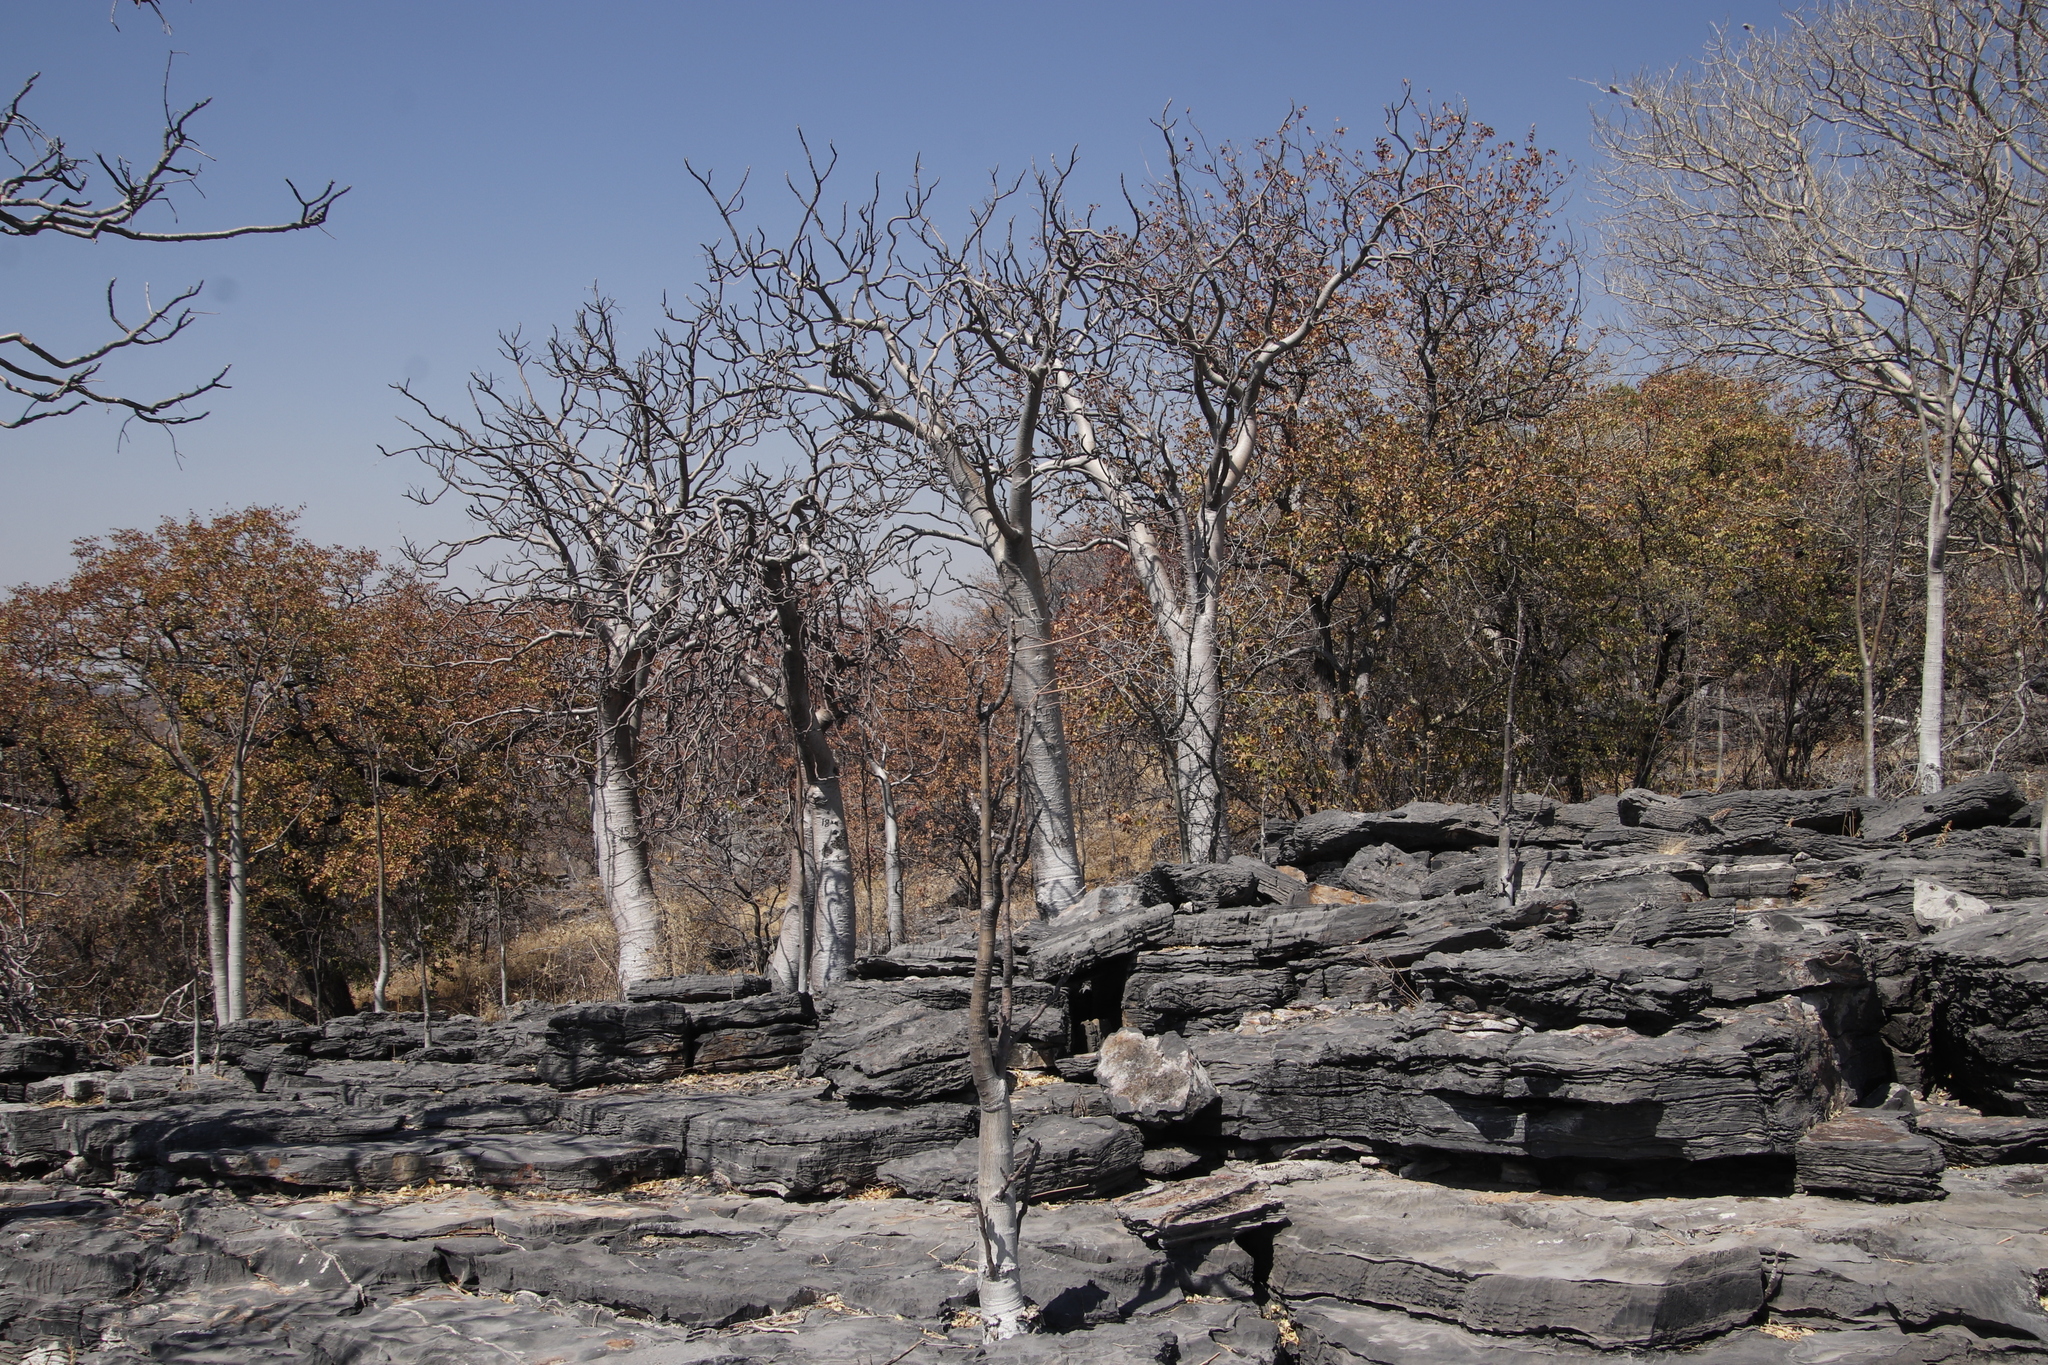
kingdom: Plantae
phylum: Tracheophyta
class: Magnoliopsida
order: Brassicales
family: Moringaceae
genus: Moringa
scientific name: Moringa ovalifolia
